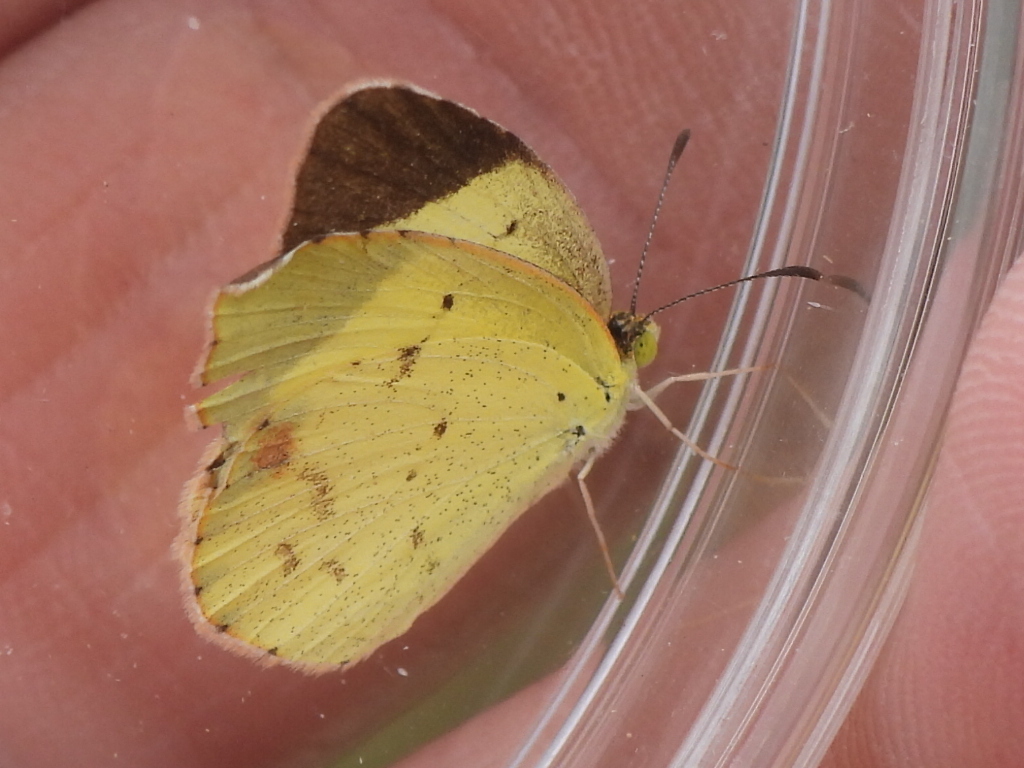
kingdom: Animalia
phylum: Arthropoda
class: Insecta
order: Lepidoptera
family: Pieridae
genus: Pyrisitia
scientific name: Pyrisitia lisa
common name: Little yellow
